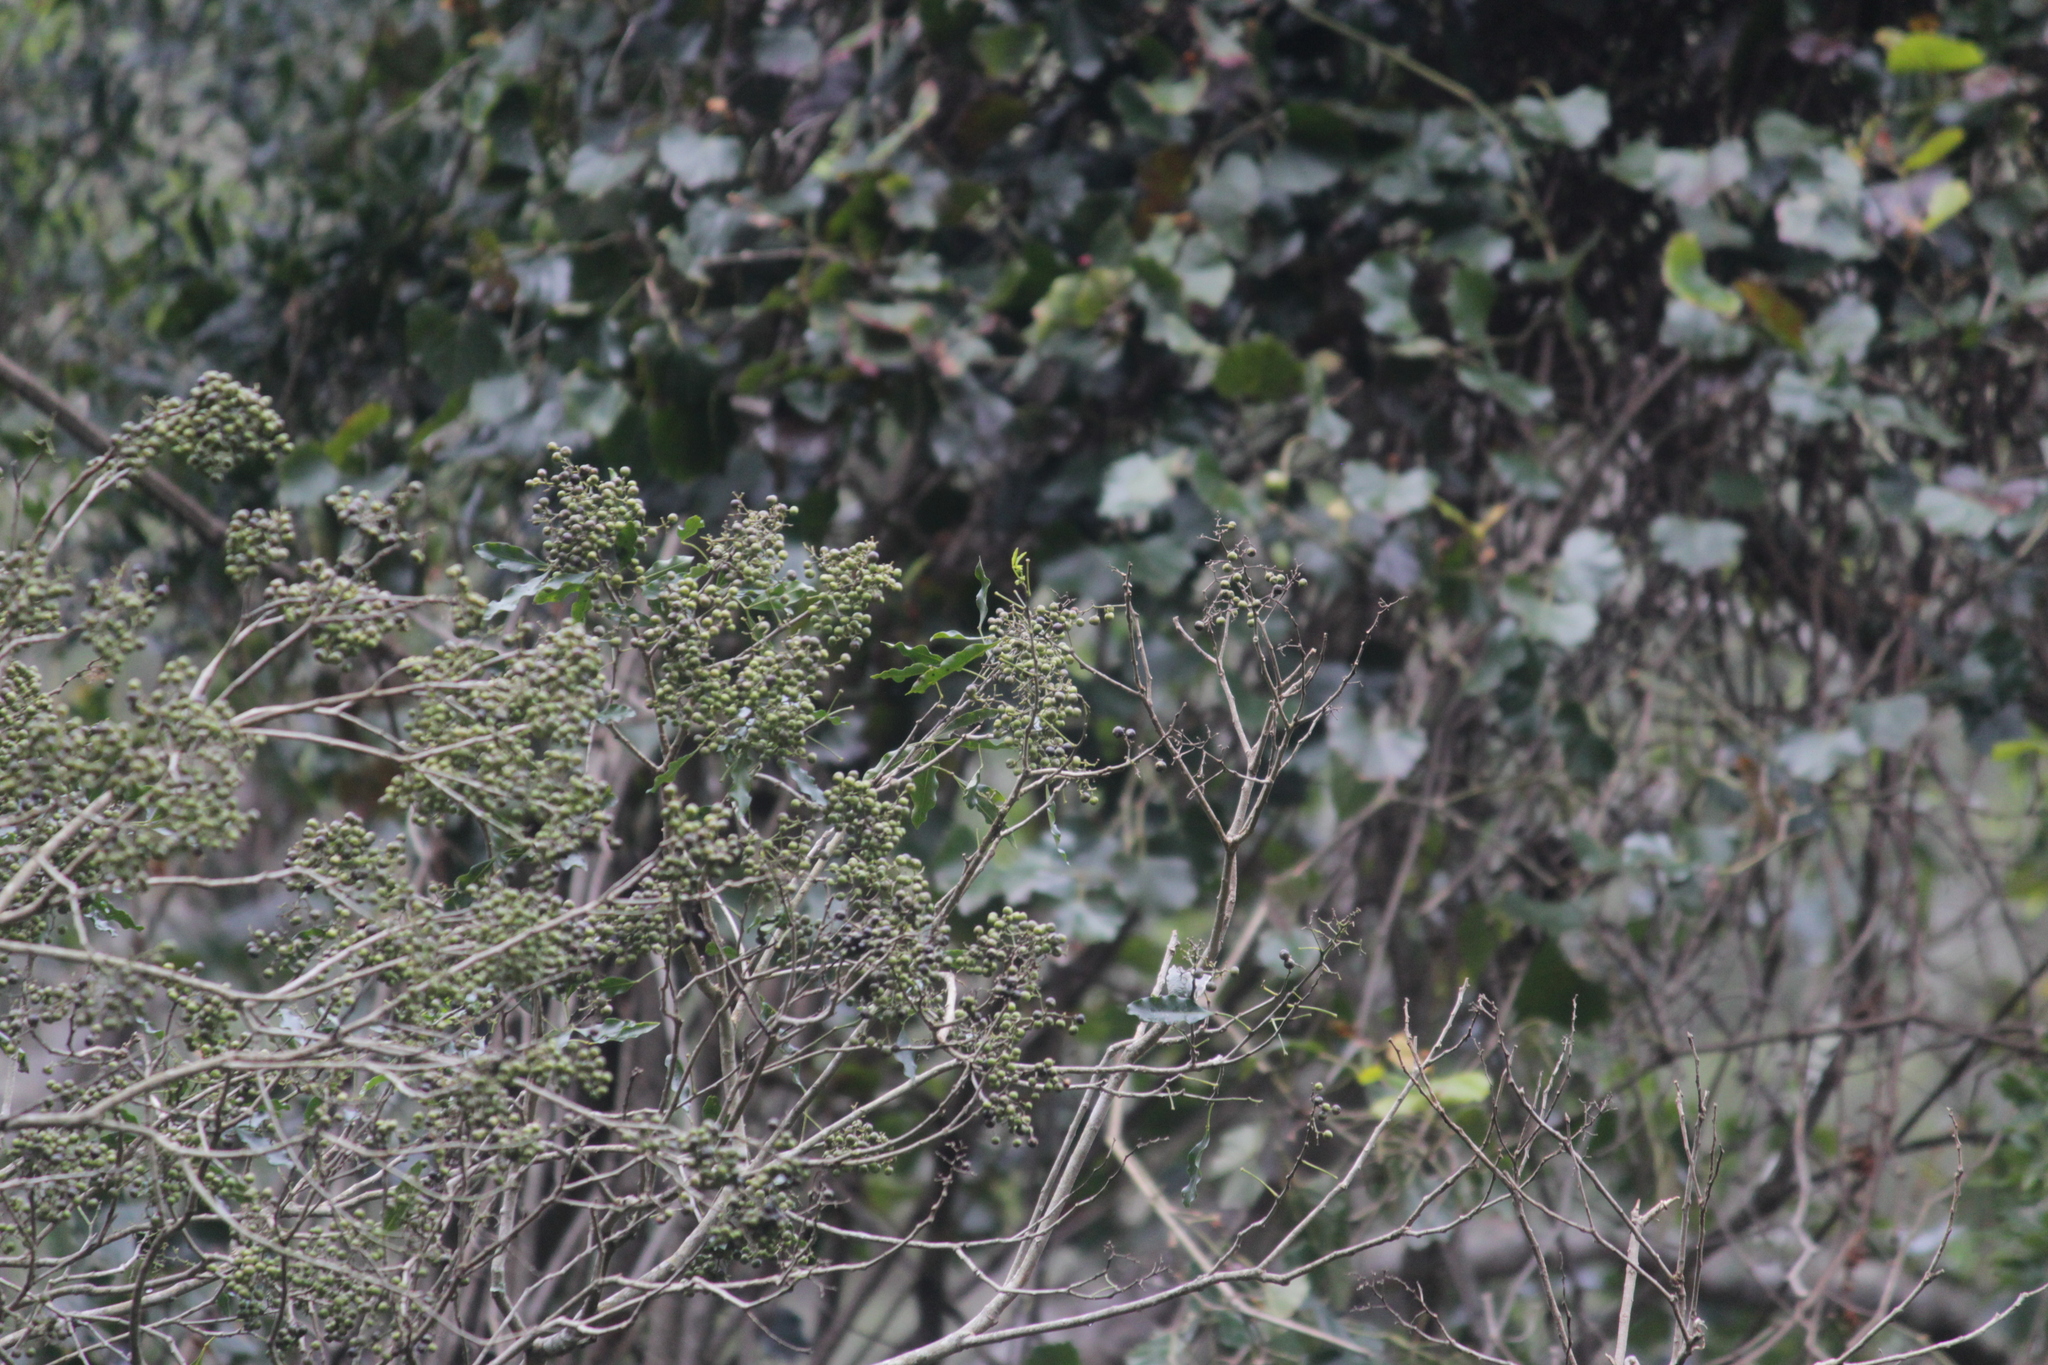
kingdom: Plantae
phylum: Tracheophyta
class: Magnoliopsida
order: Sapindales
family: Rutaceae
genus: Vepris
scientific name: Vepris lanceolata
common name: White ironwood
